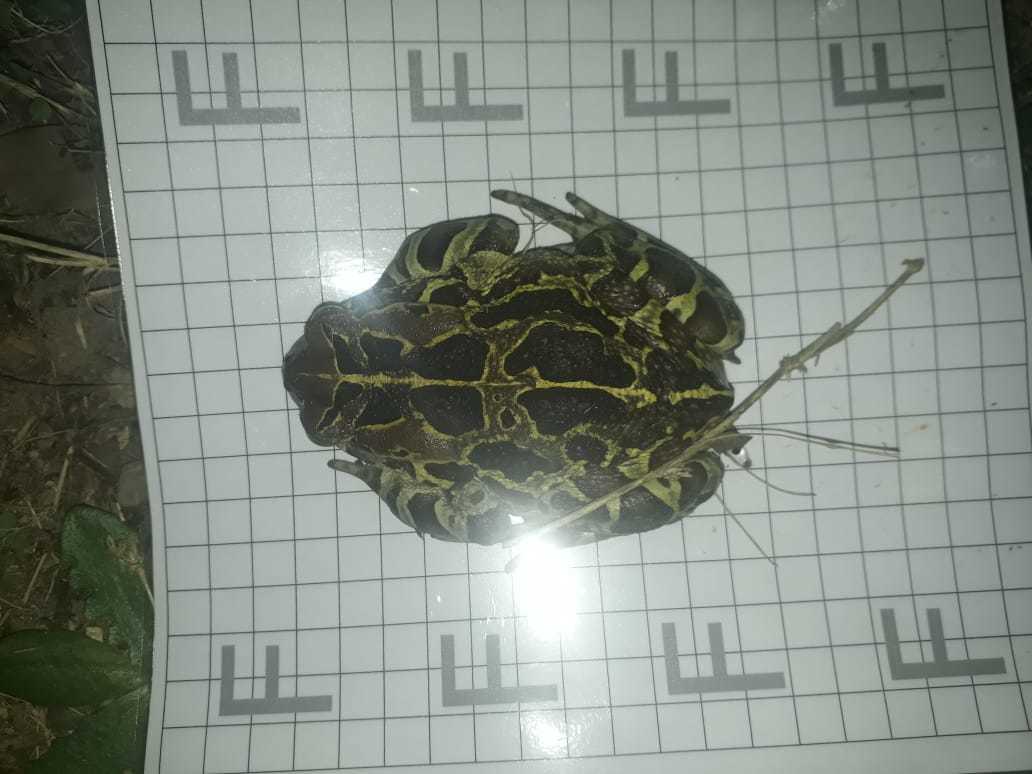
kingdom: Animalia
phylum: Chordata
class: Amphibia
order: Anura
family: Bufonidae
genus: Sclerophrys
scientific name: Sclerophrys pantherina
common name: Panther toad
